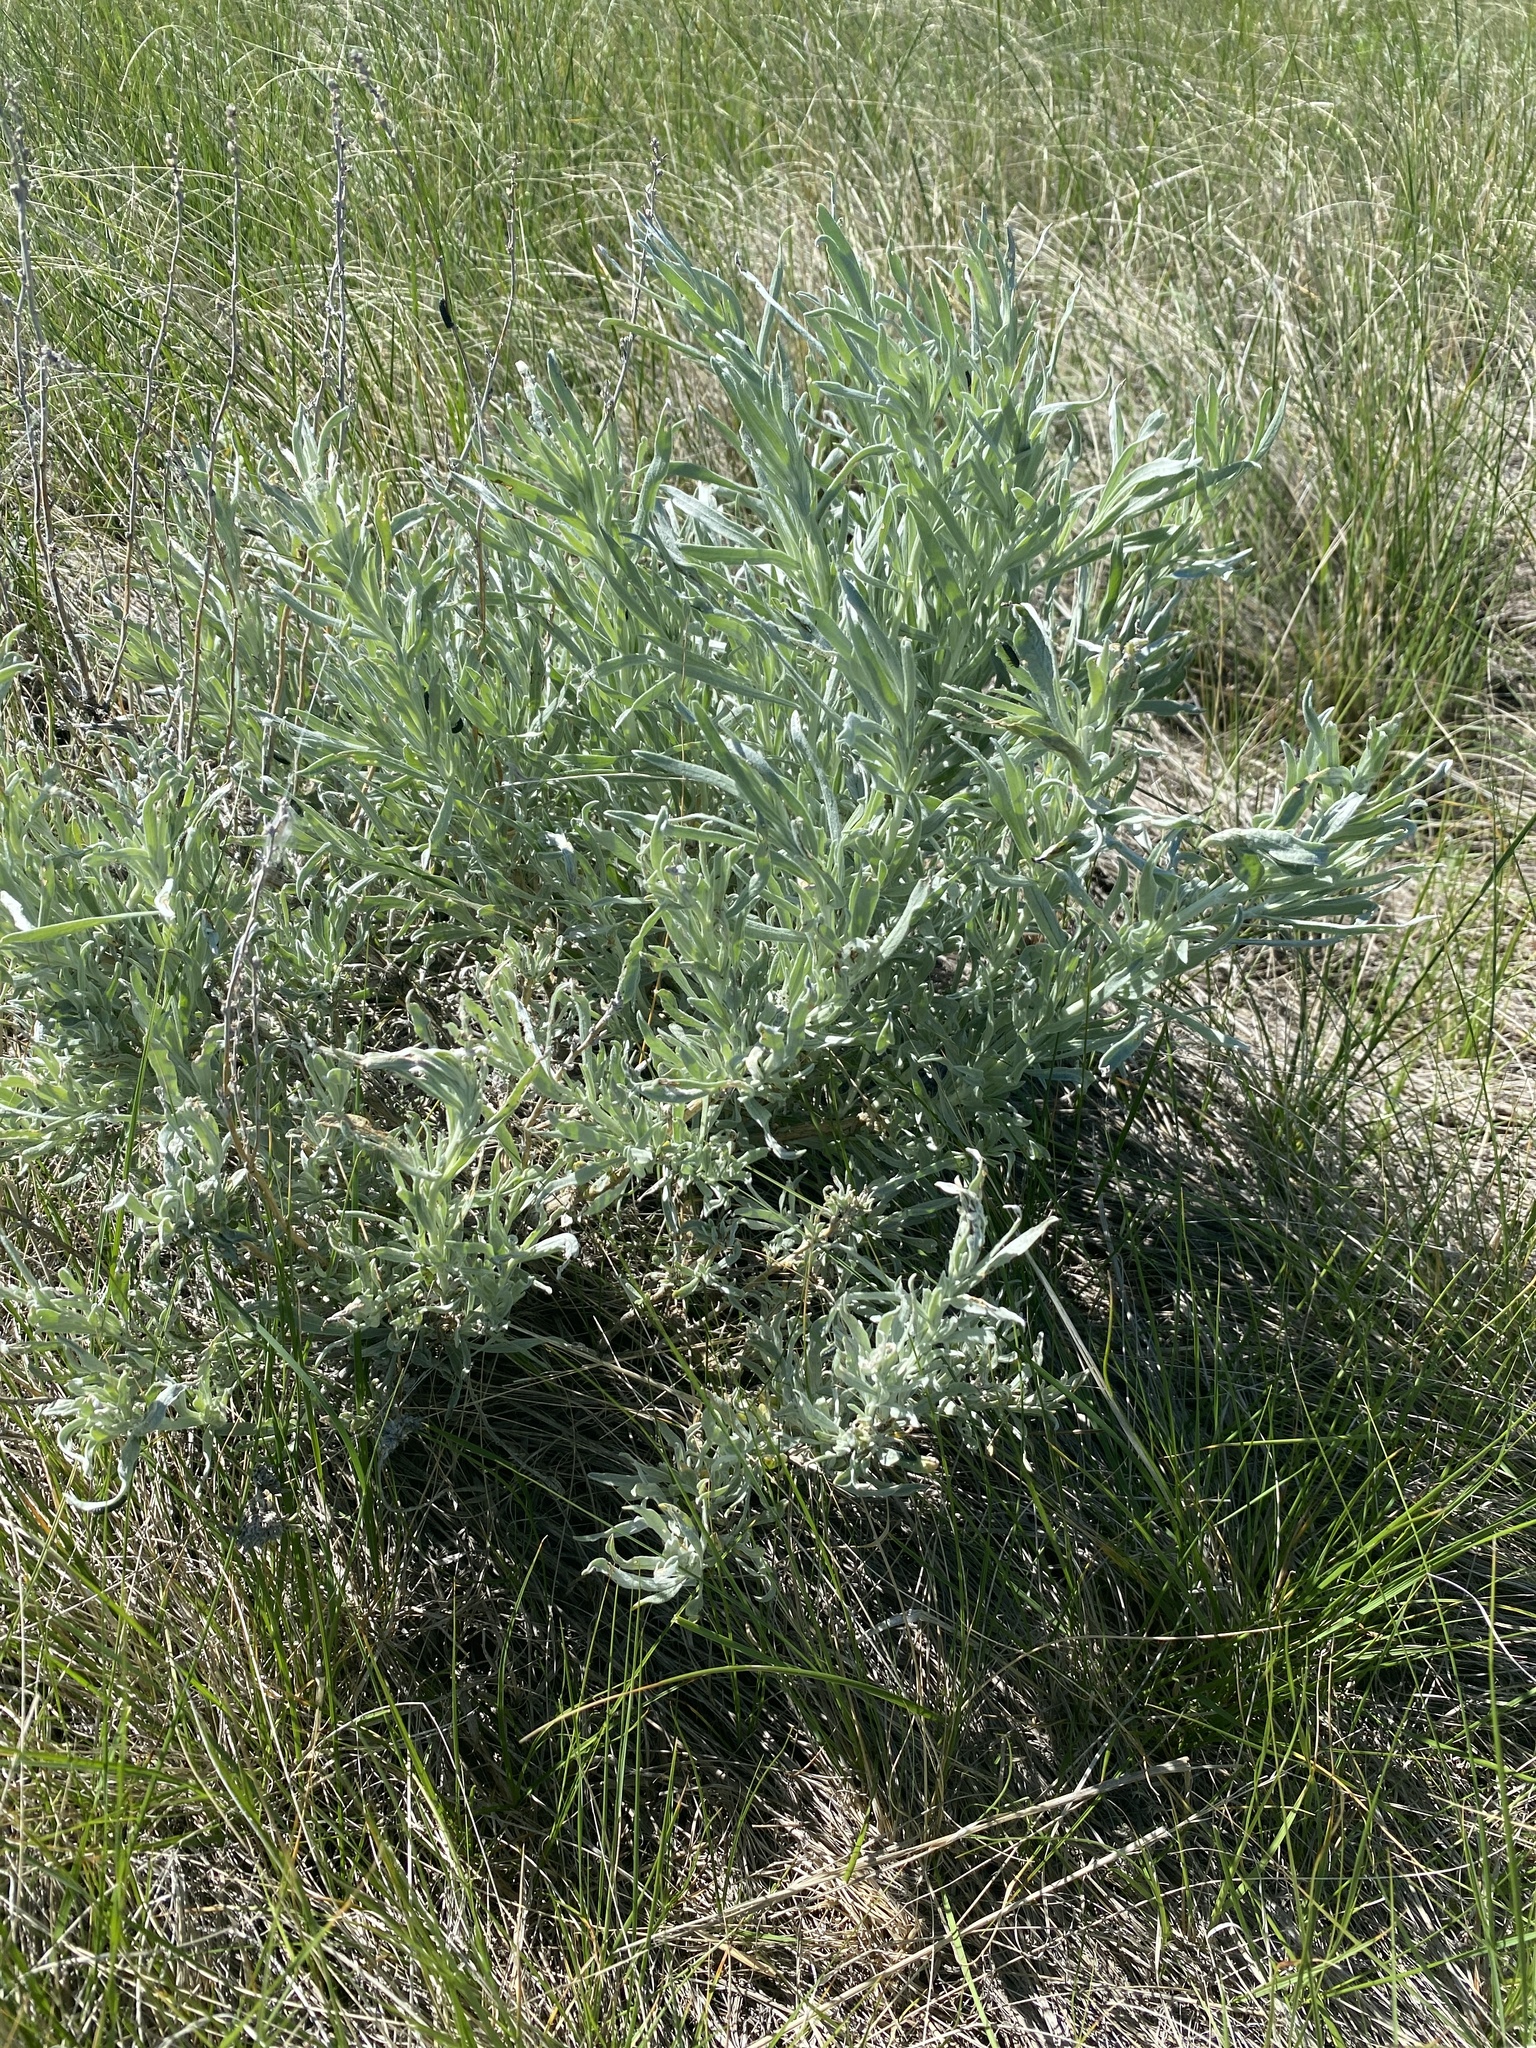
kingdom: Plantae
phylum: Tracheophyta
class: Magnoliopsida
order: Asterales
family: Asteraceae
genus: Artemisia
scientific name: Artemisia cana
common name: Silver sagebrush
